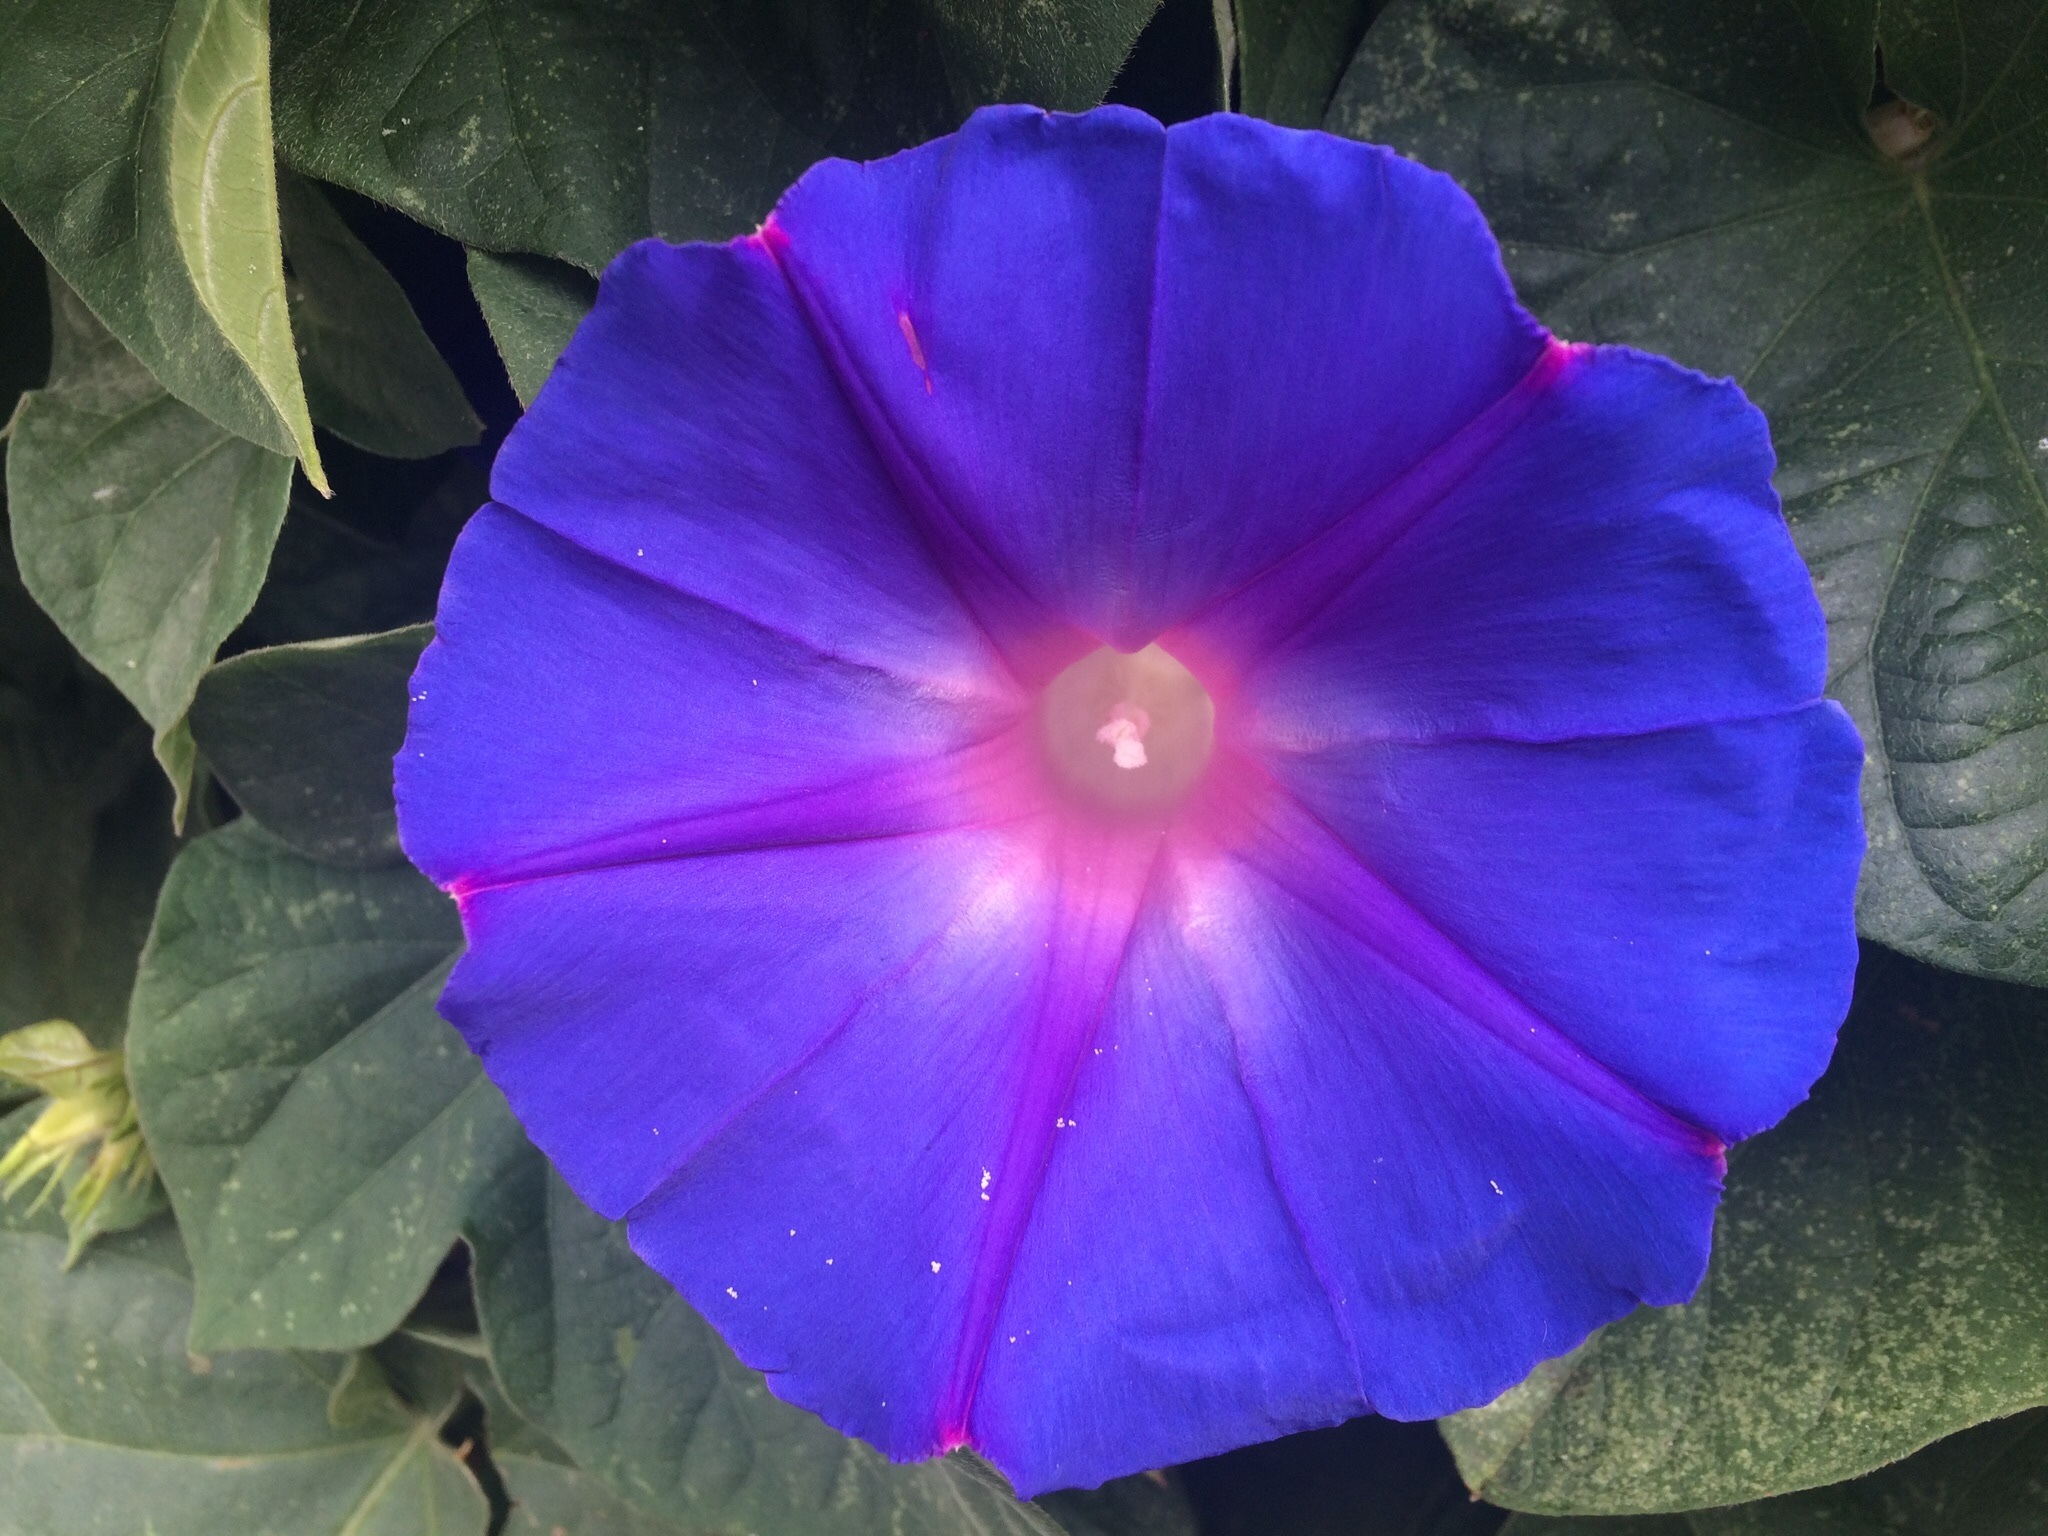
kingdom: Plantae
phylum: Tracheophyta
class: Magnoliopsida
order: Solanales
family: Convolvulaceae
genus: Ipomoea
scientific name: Ipomoea indica
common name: Blue dawnflower
